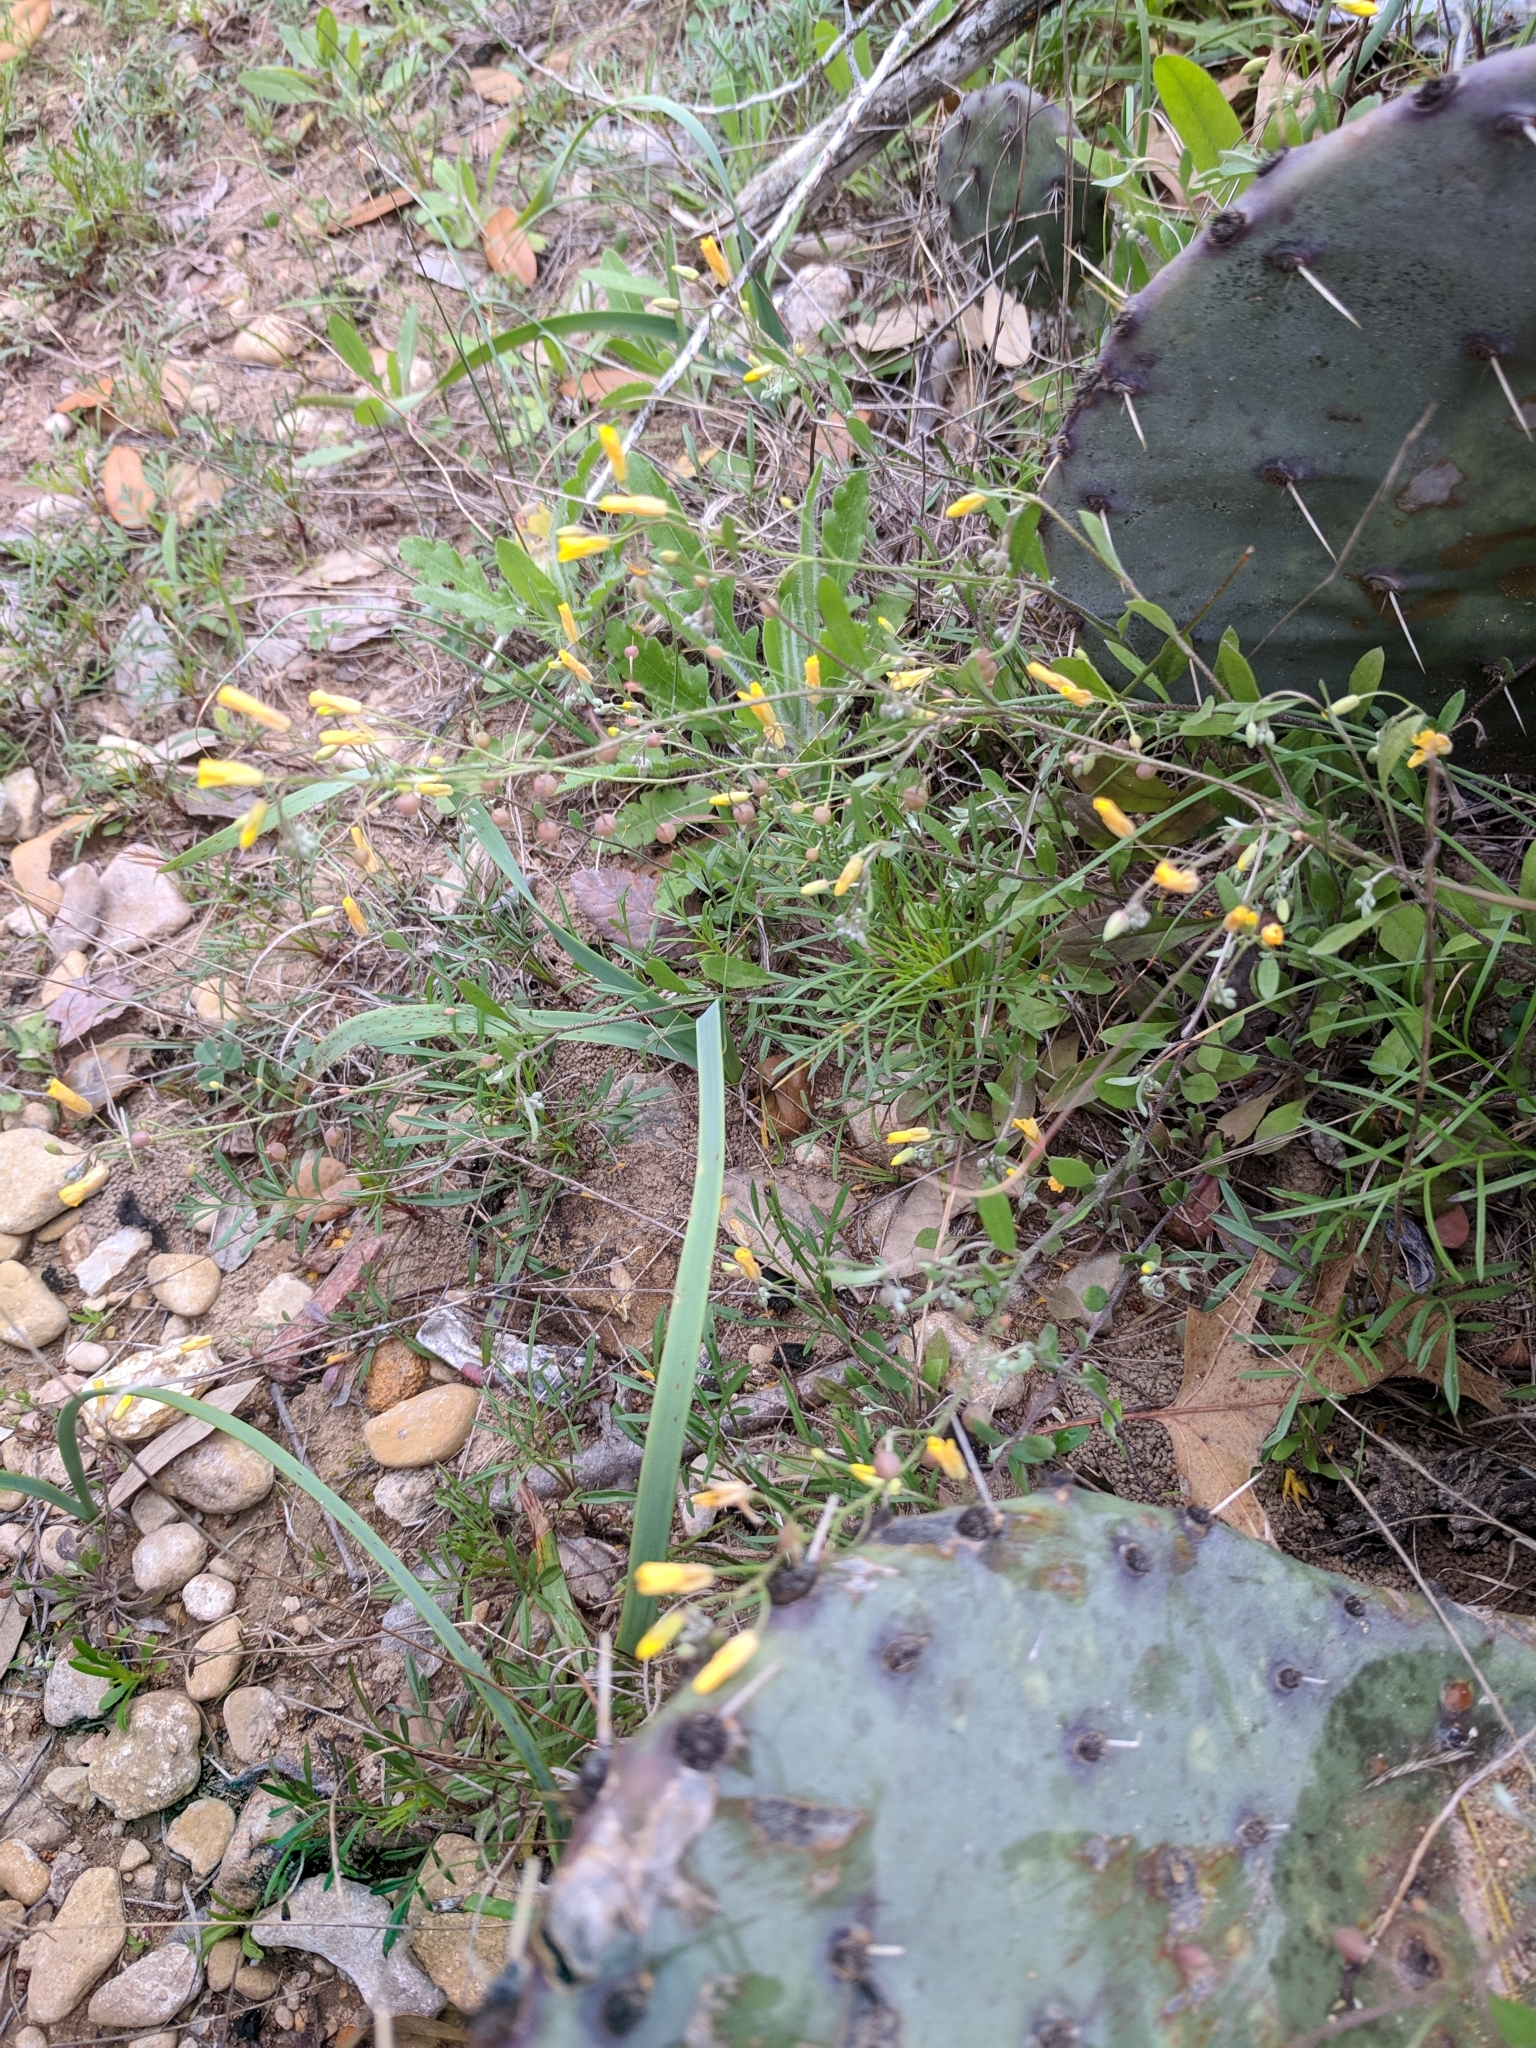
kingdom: Plantae
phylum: Tracheophyta
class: Magnoliopsida
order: Brassicales
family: Brassicaceae
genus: Physaria
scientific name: Physaria recurvata
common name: Gaslight bladderpod
